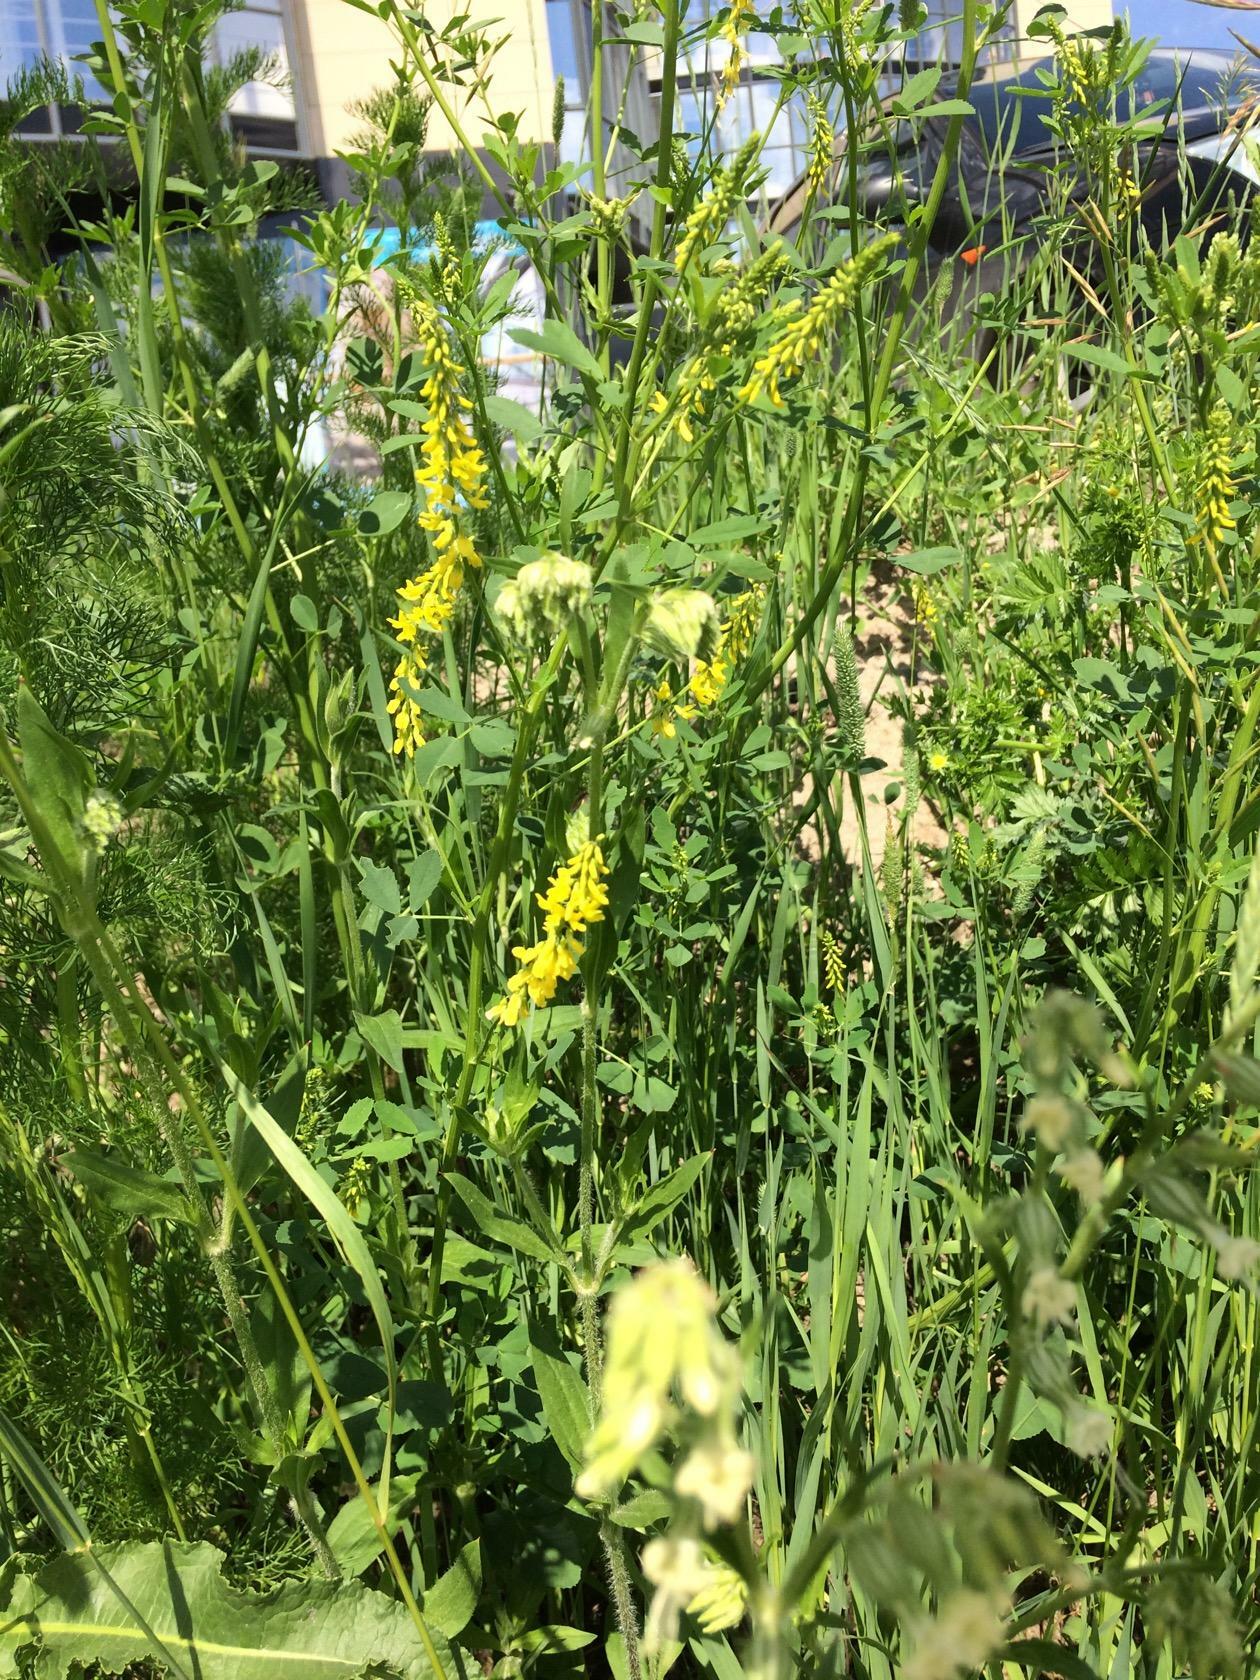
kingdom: Plantae
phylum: Tracheophyta
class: Magnoliopsida
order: Fabales
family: Fabaceae
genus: Melilotus
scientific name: Melilotus officinalis
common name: Sweetclover
